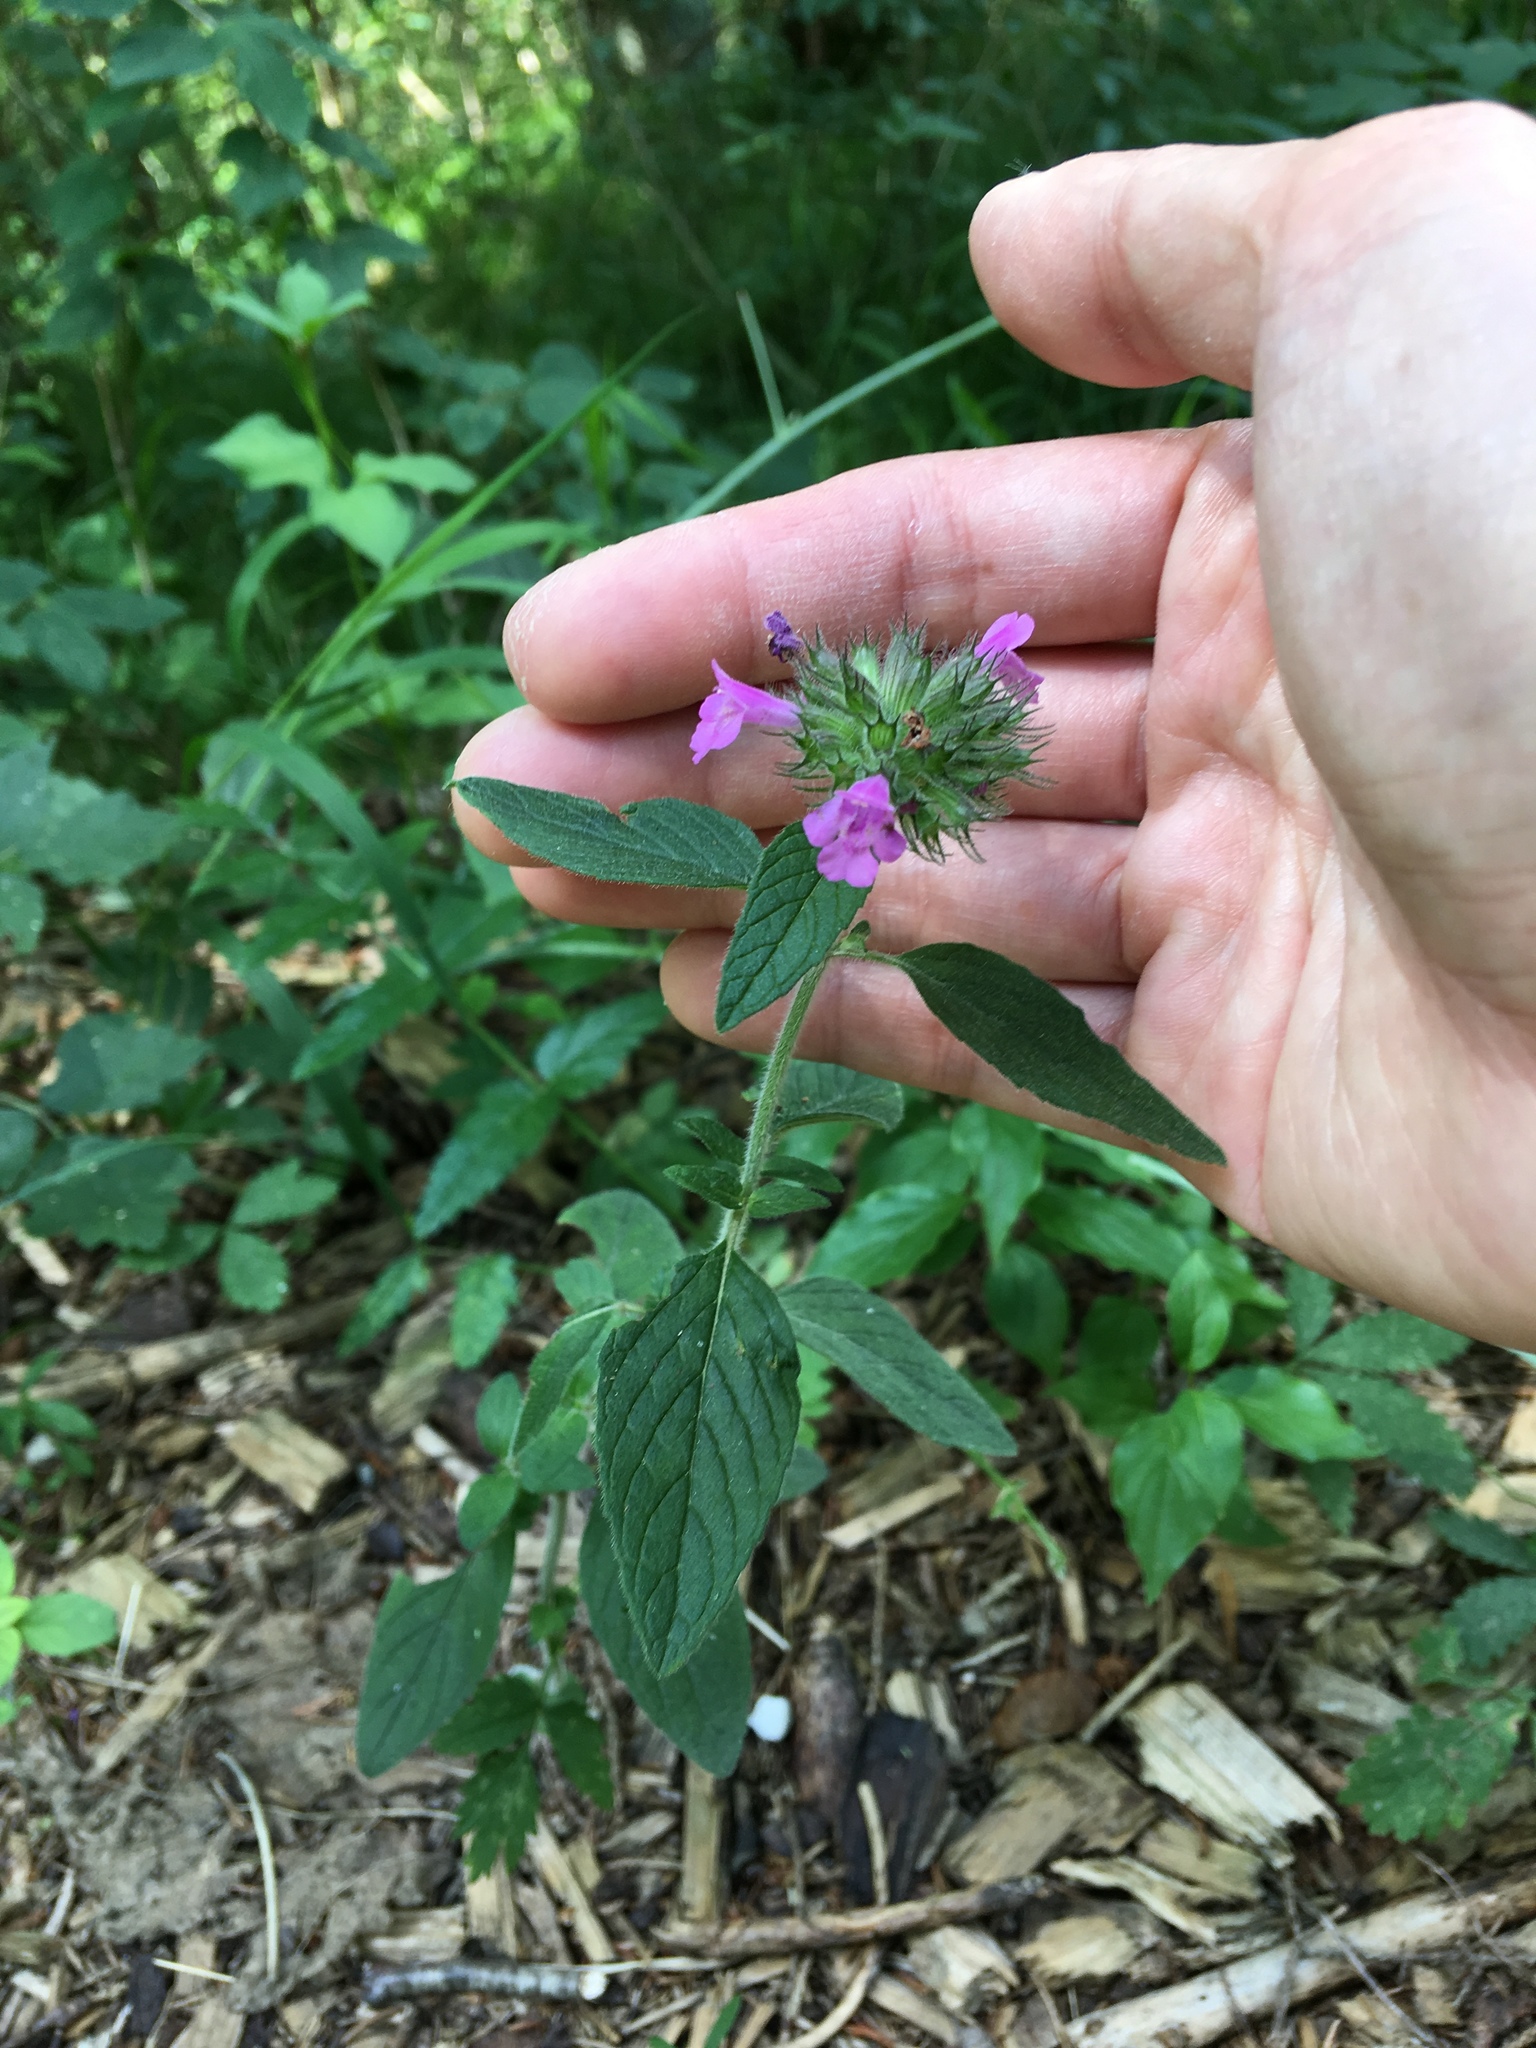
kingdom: Plantae
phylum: Tracheophyta
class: Magnoliopsida
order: Lamiales
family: Lamiaceae
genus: Clinopodium
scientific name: Clinopodium vulgare
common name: Wild basil
